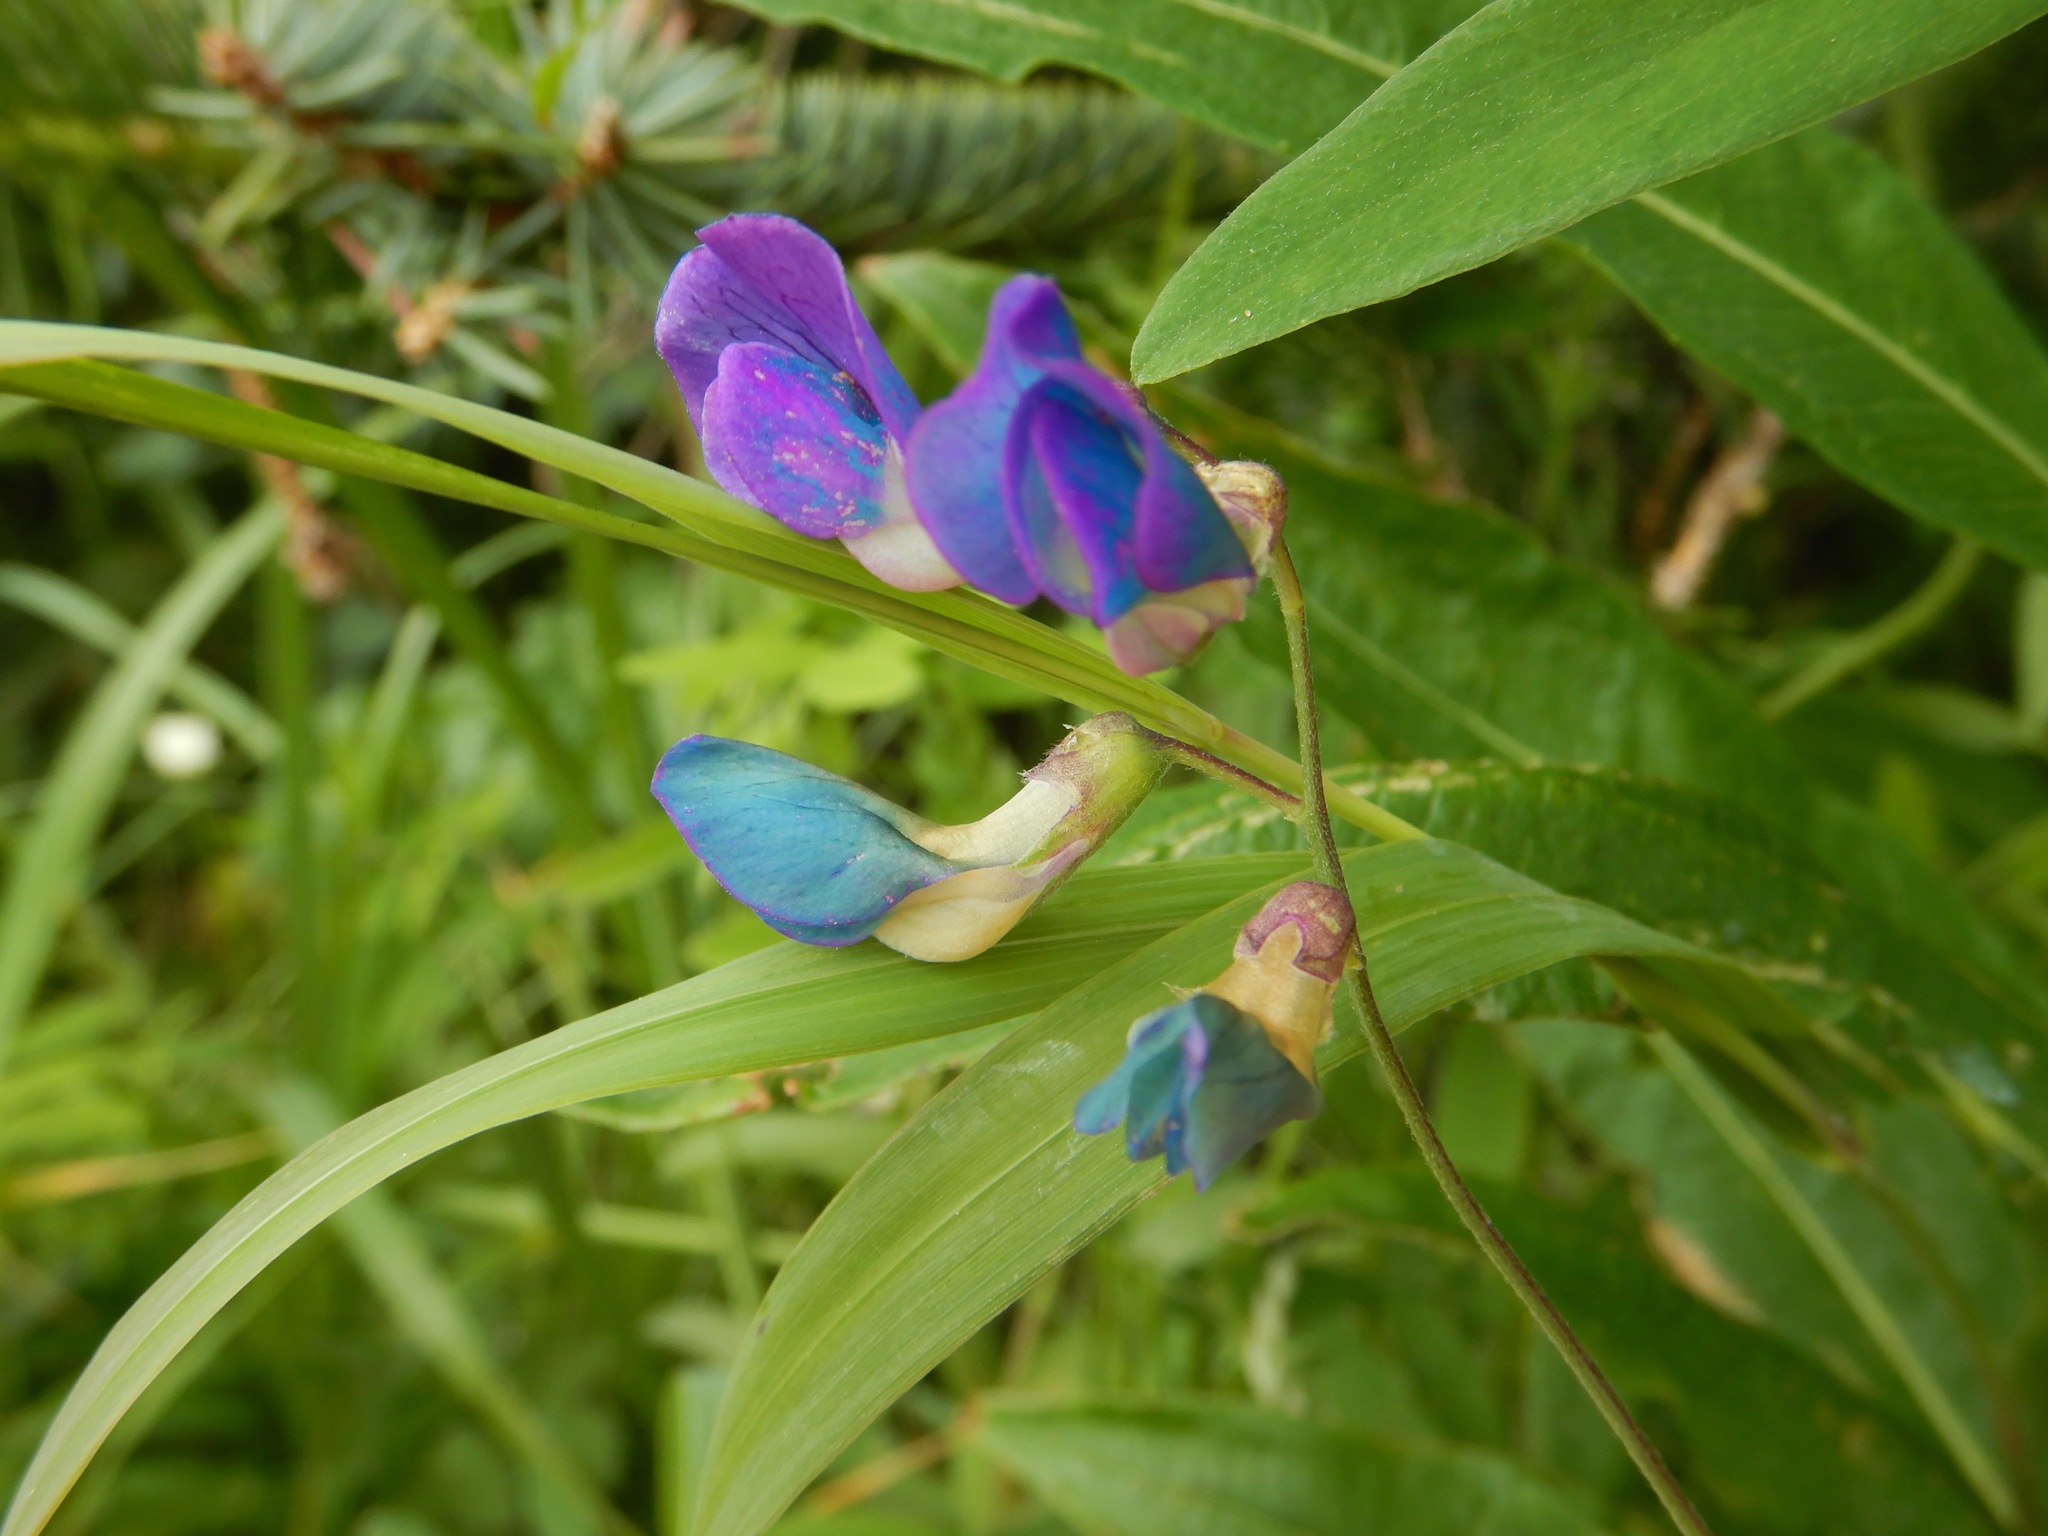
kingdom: Plantae
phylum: Tracheophyta
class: Magnoliopsida
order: Fabales
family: Fabaceae
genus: Lathyrus
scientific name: Lathyrus japonicus
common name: Sea pea
